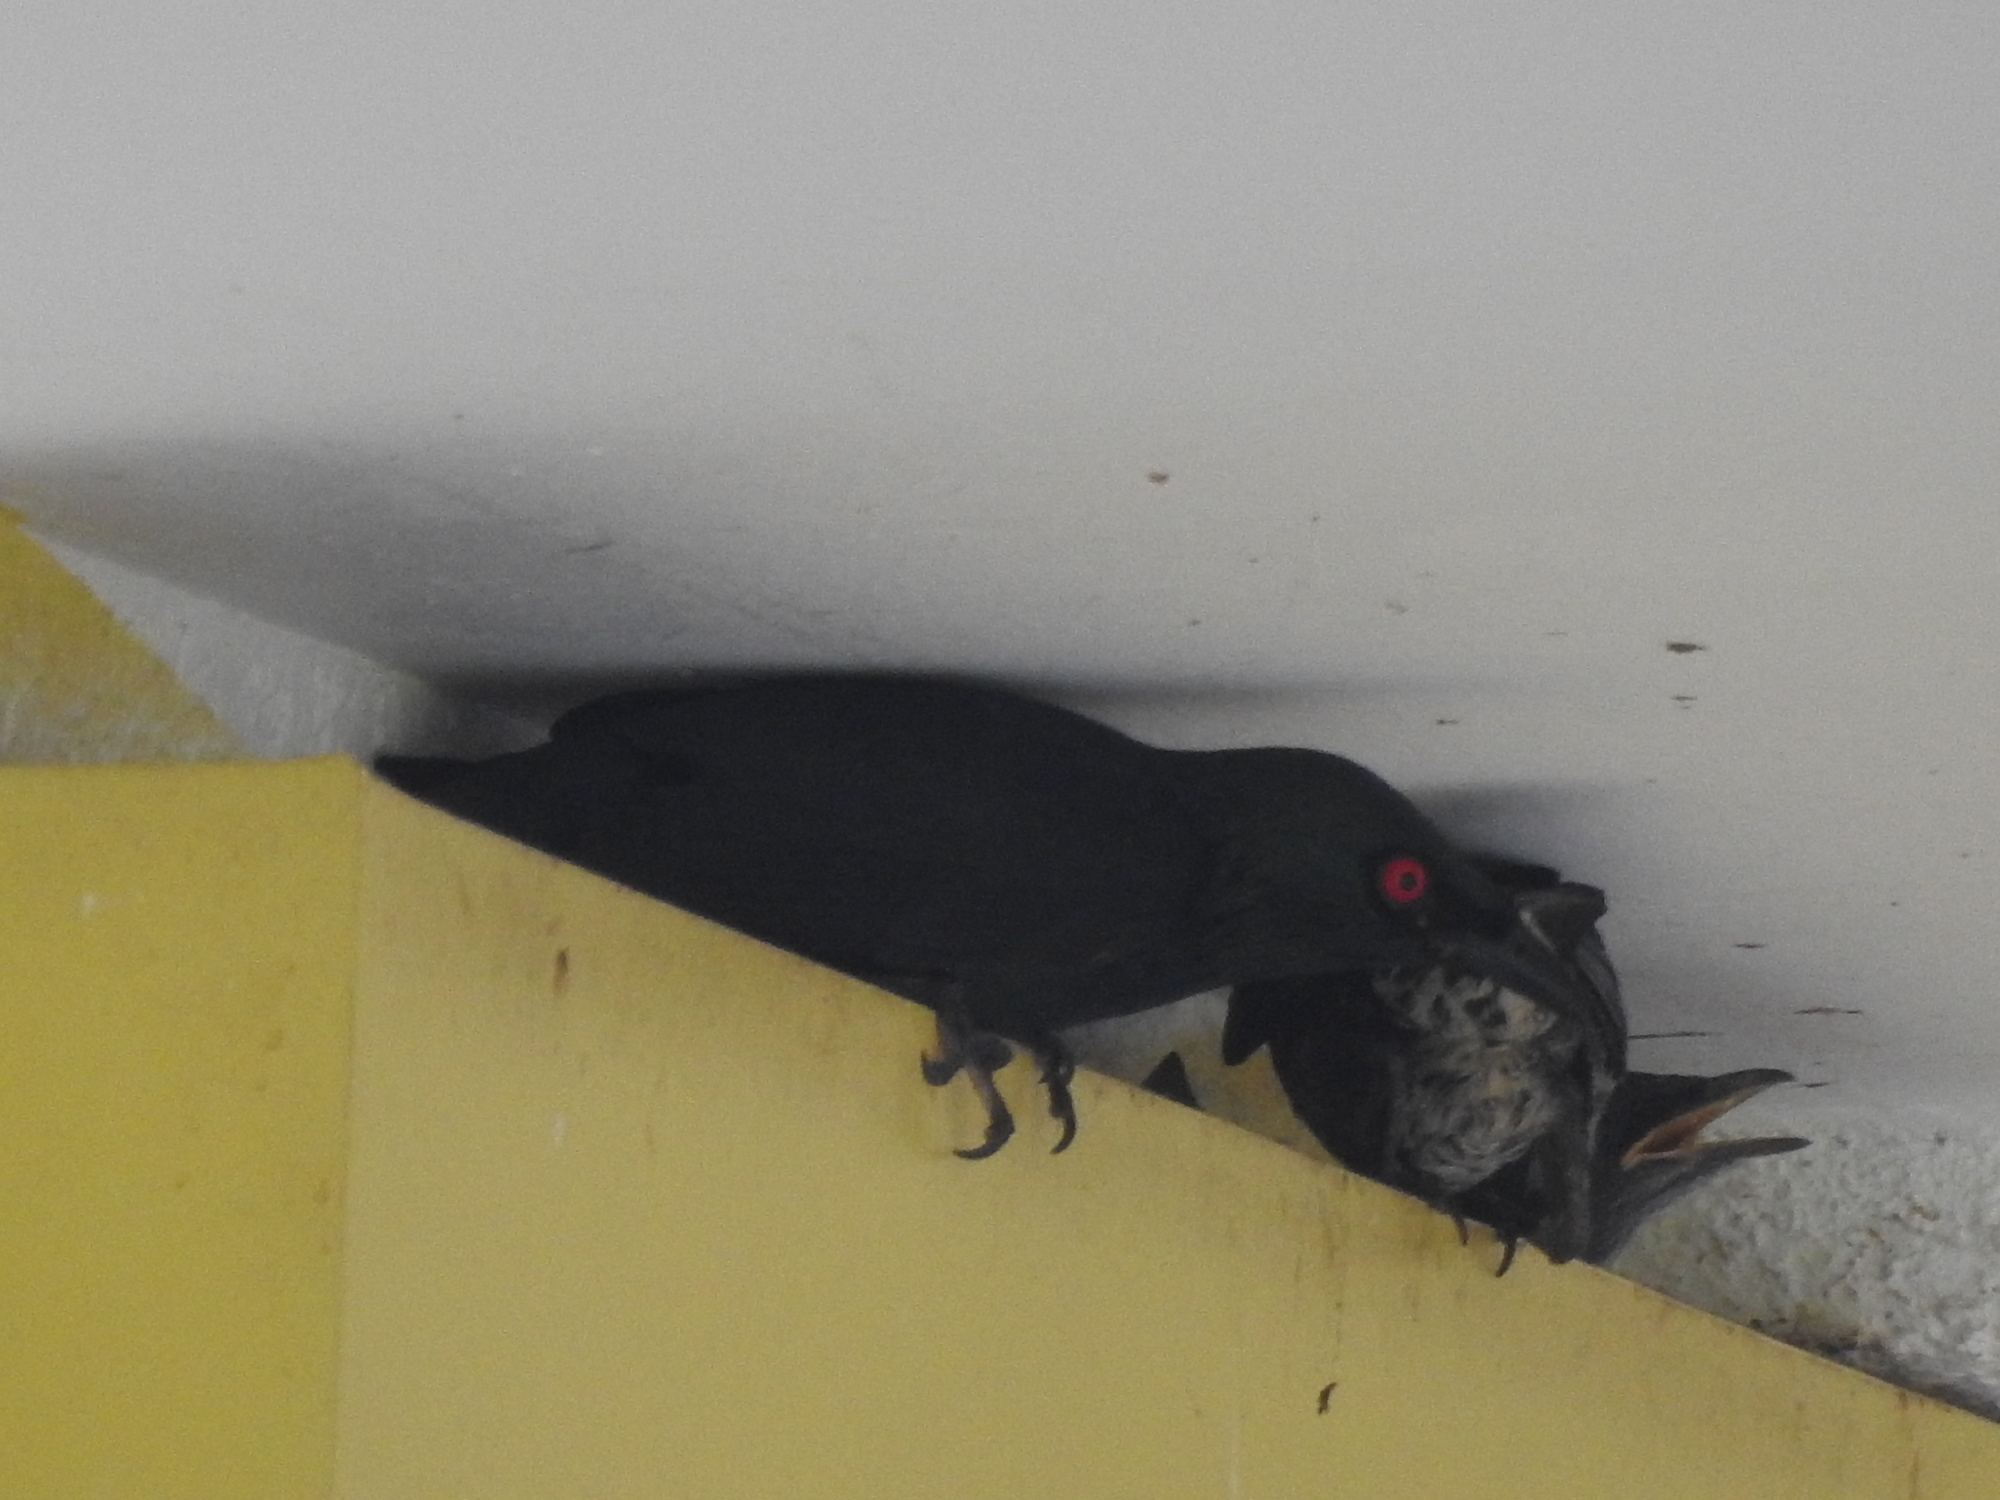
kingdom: Animalia
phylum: Chordata
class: Aves
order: Passeriformes
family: Sturnidae
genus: Aplonis
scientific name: Aplonis panayensis
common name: Asian glossy starling
